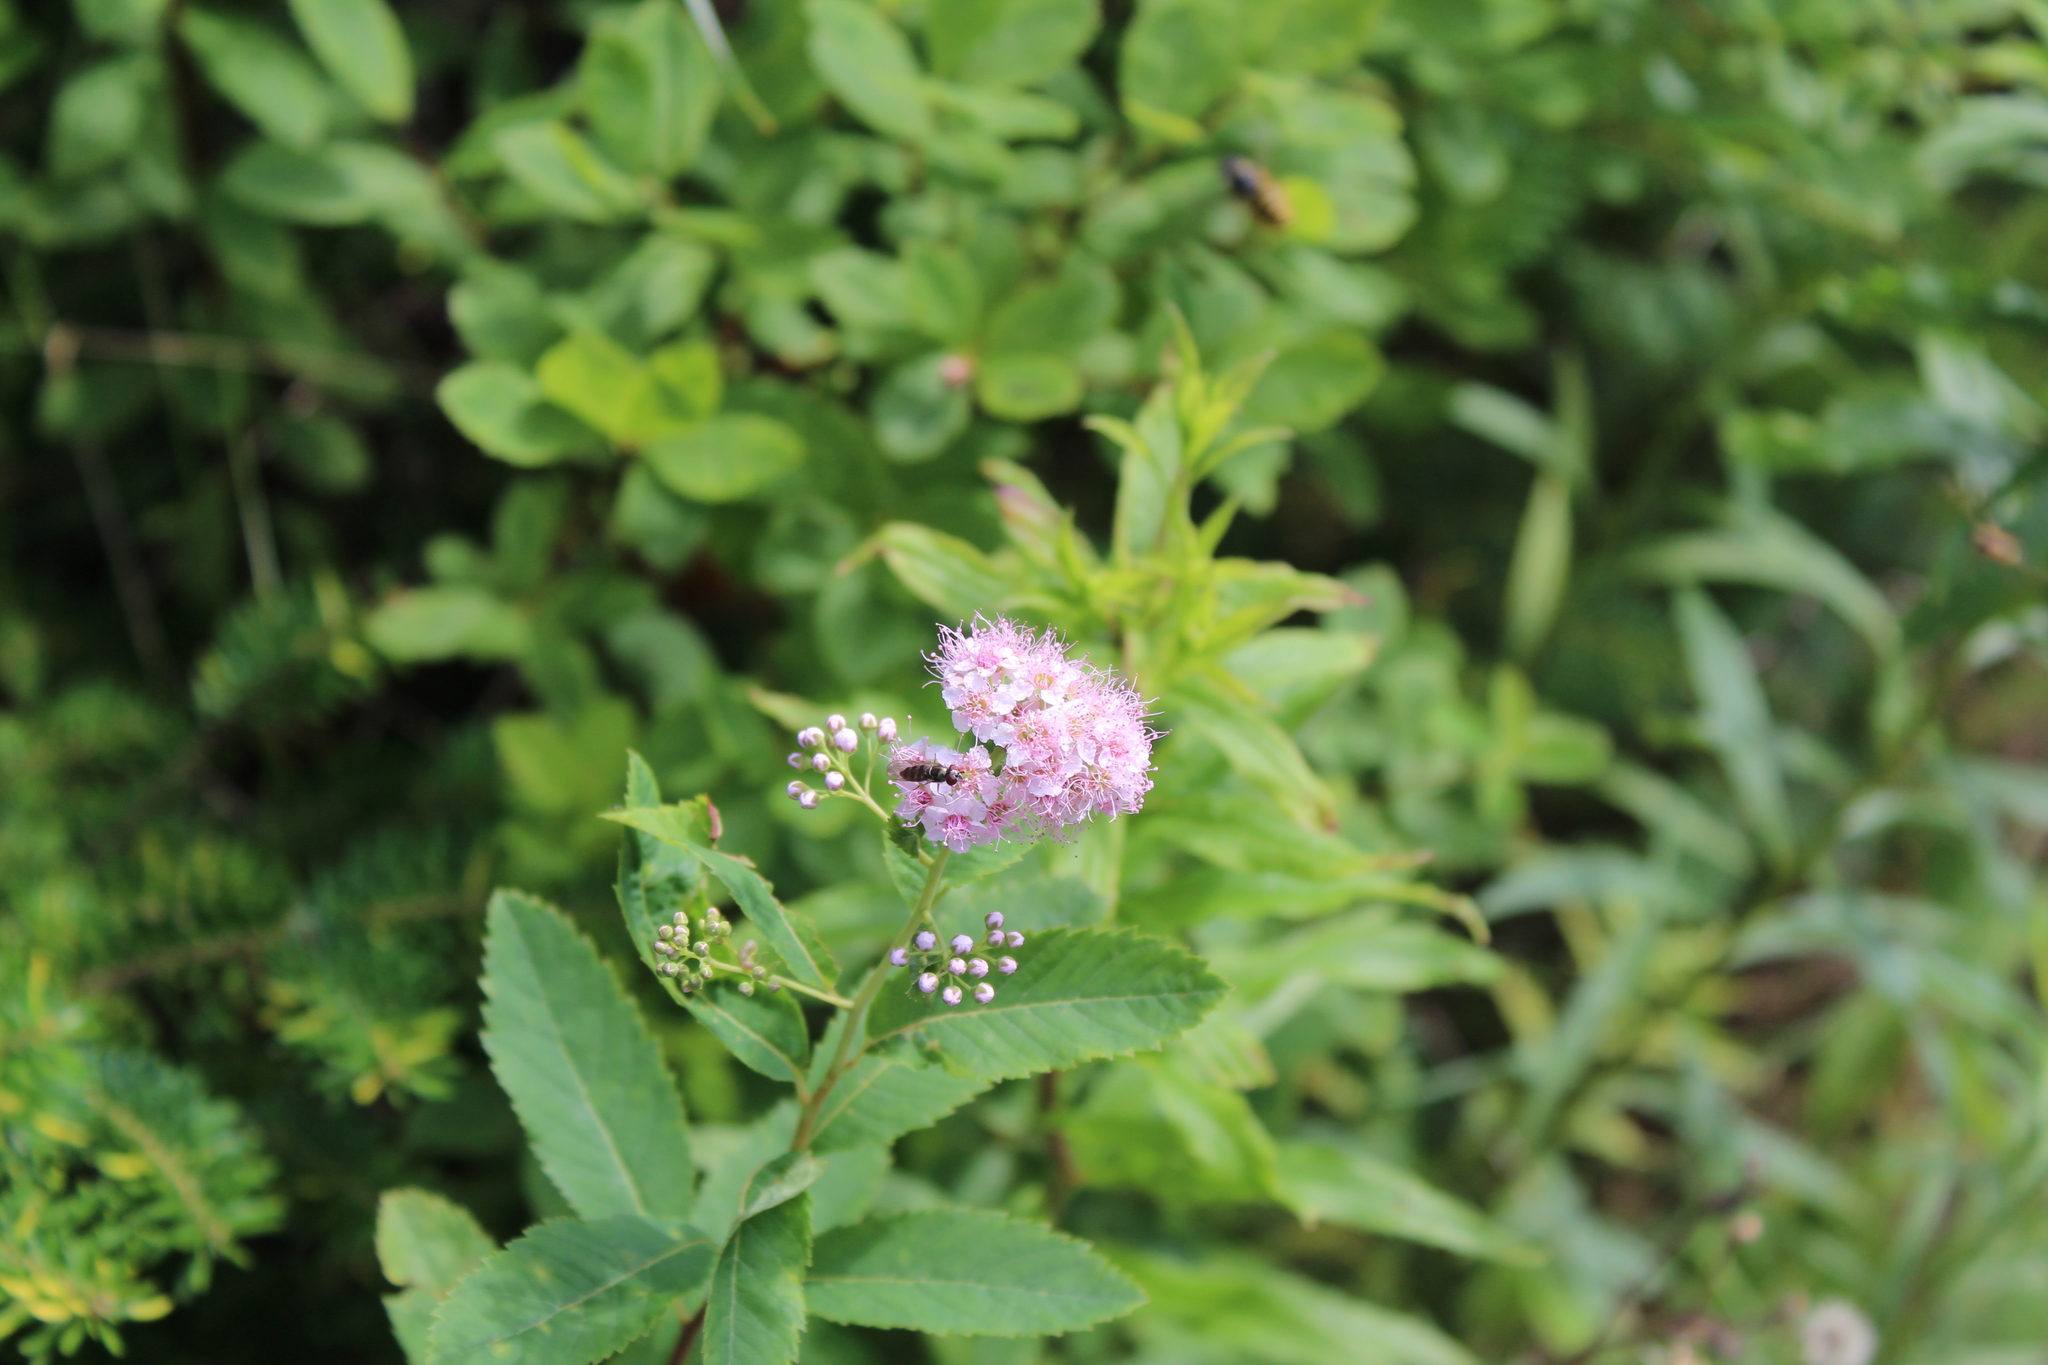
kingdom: Plantae
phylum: Tracheophyta
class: Magnoliopsida
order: Rosales
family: Rosaceae
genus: Spiraea
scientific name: Spiraea alba
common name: Pale bridewort
